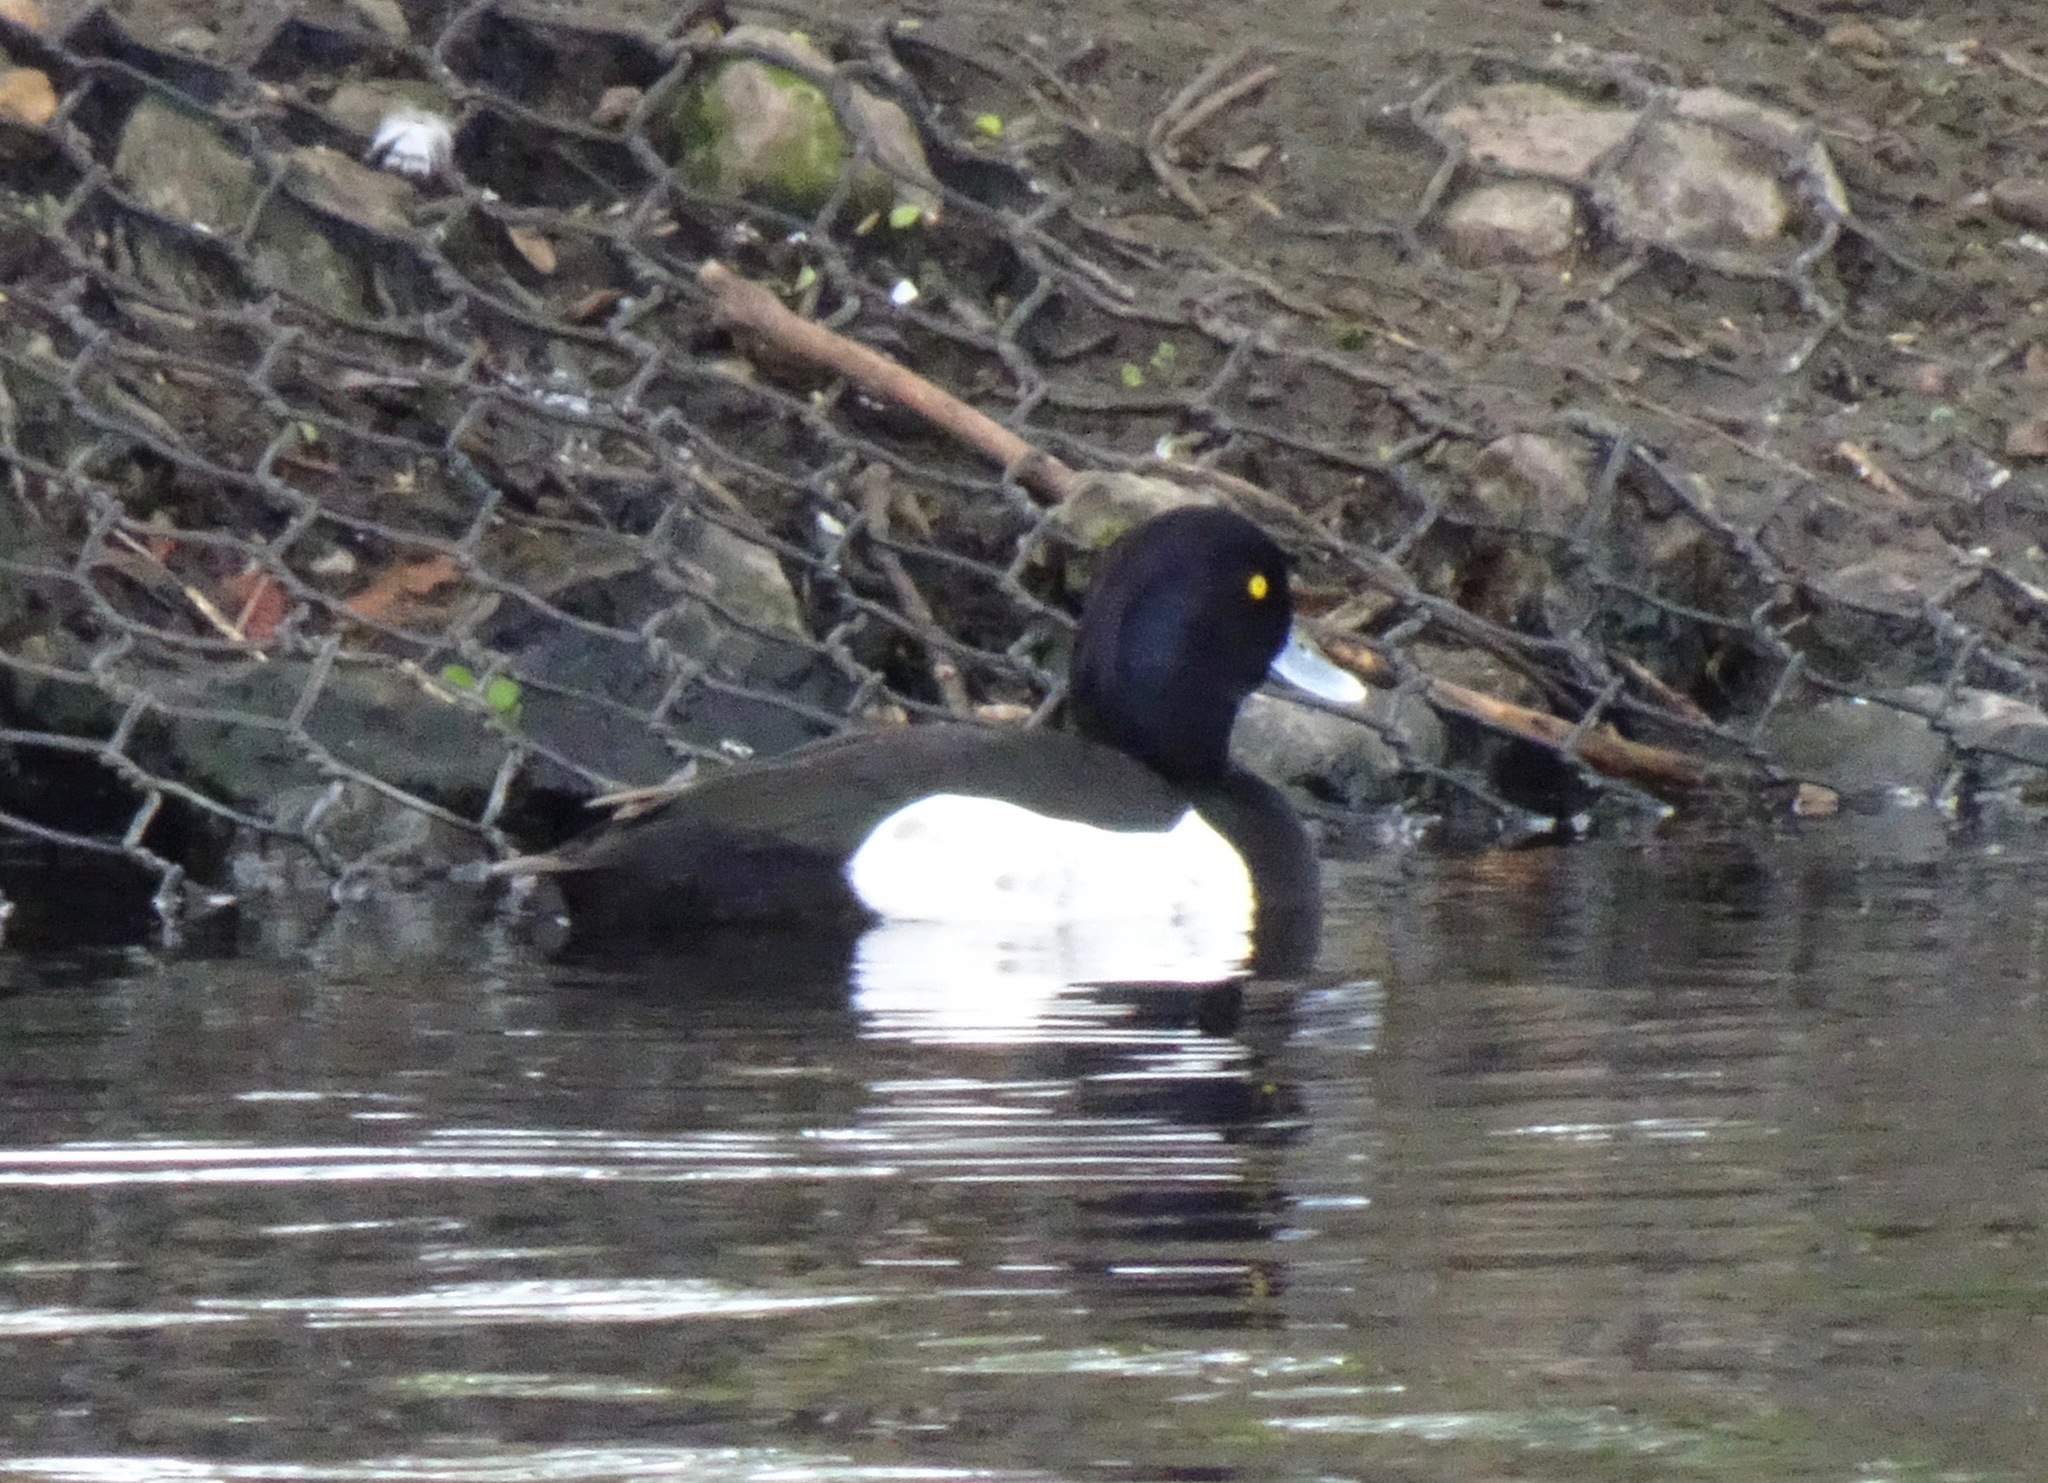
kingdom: Animalia
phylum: Chordata
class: Aves
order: Anseriformes
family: Anatidae
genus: Aythya
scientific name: Aythya fuligula
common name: Tufted duck
